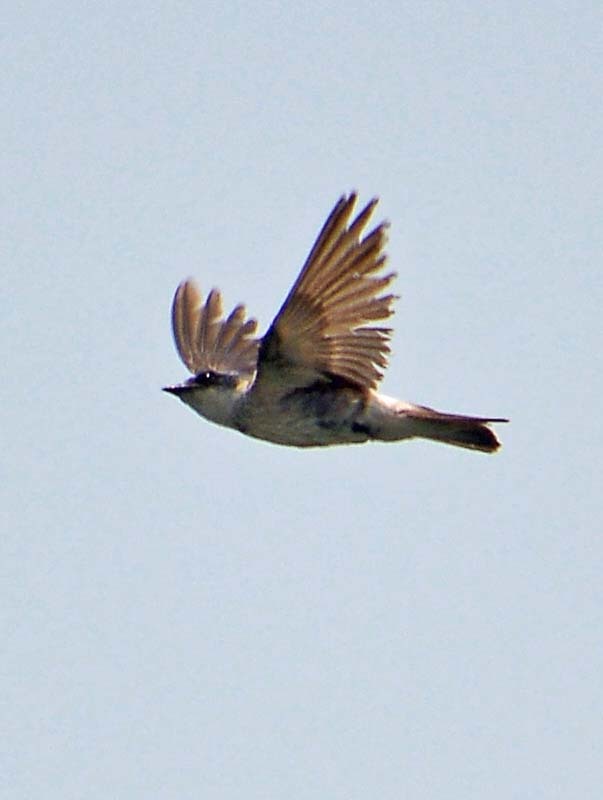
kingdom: Animalia
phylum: Chordata
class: Aves
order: Passeriformes
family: Hirundinidae
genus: Progne
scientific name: Progne chalybea
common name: Grey-breasted martin
